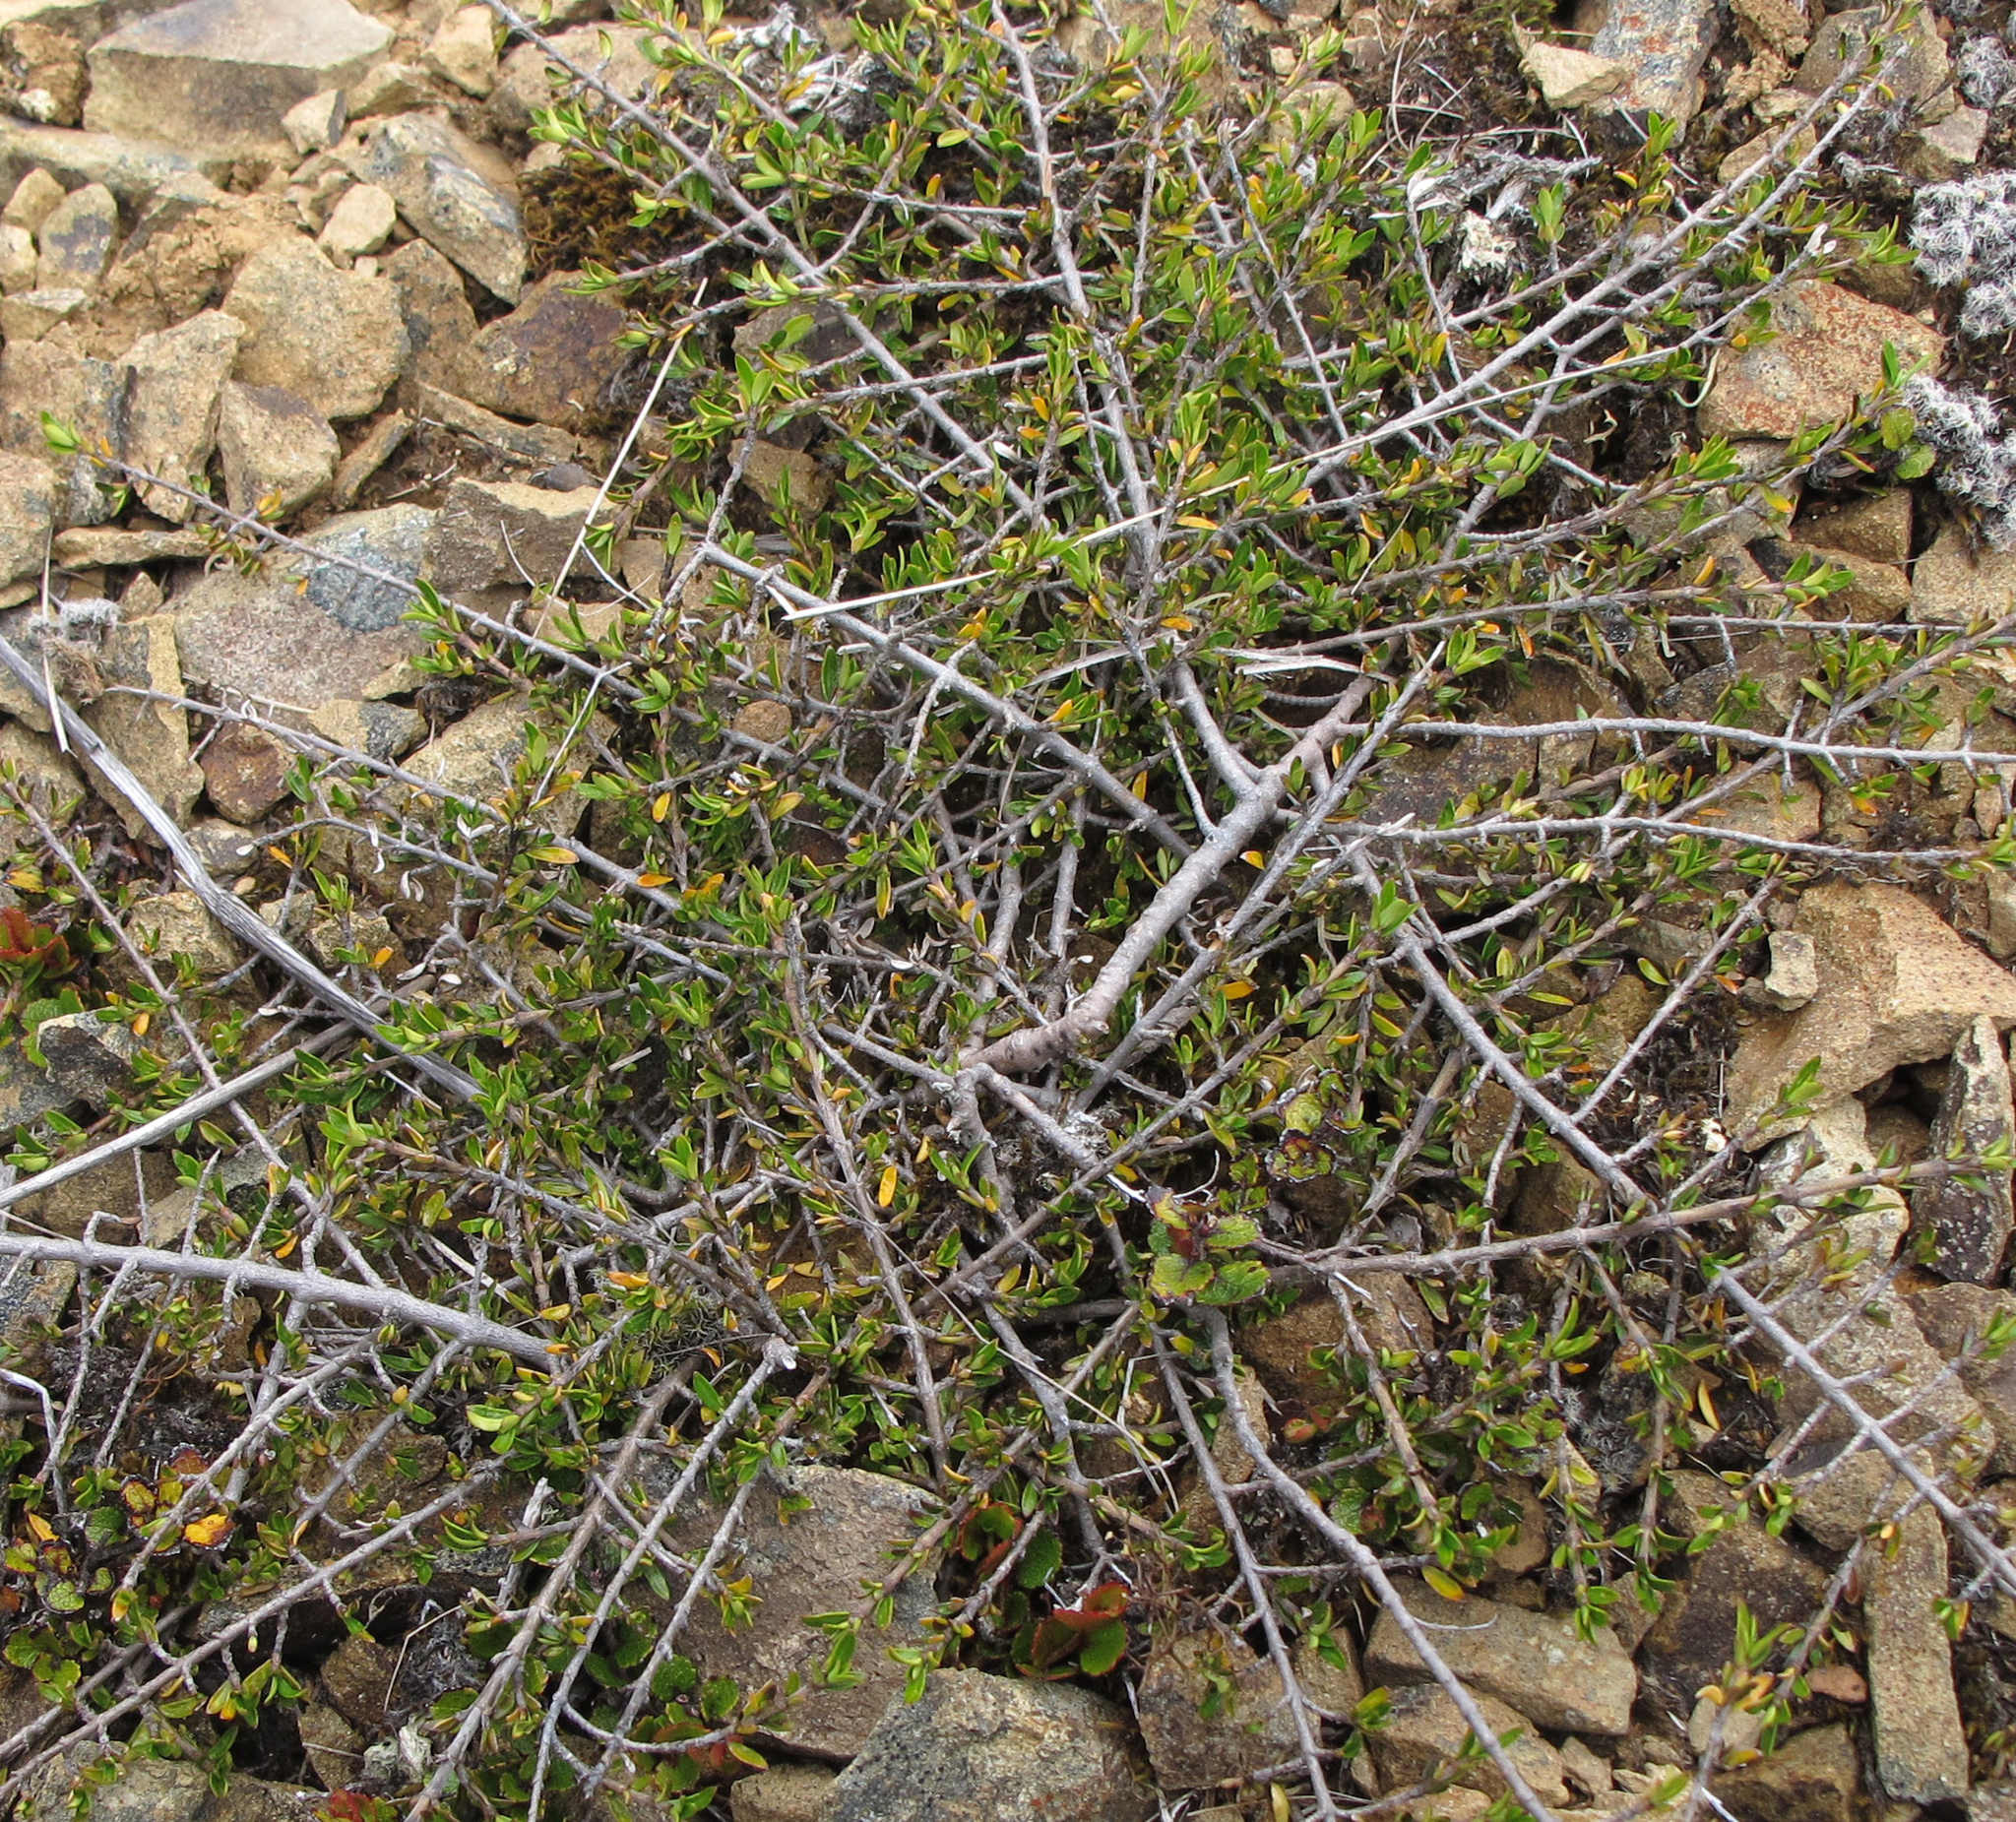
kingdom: Plantae
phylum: Tracheophyta
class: Magnoliopsida
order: Gentianales
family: Rubiaceae
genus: Coprosma
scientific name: Coprosma cheesemanii
